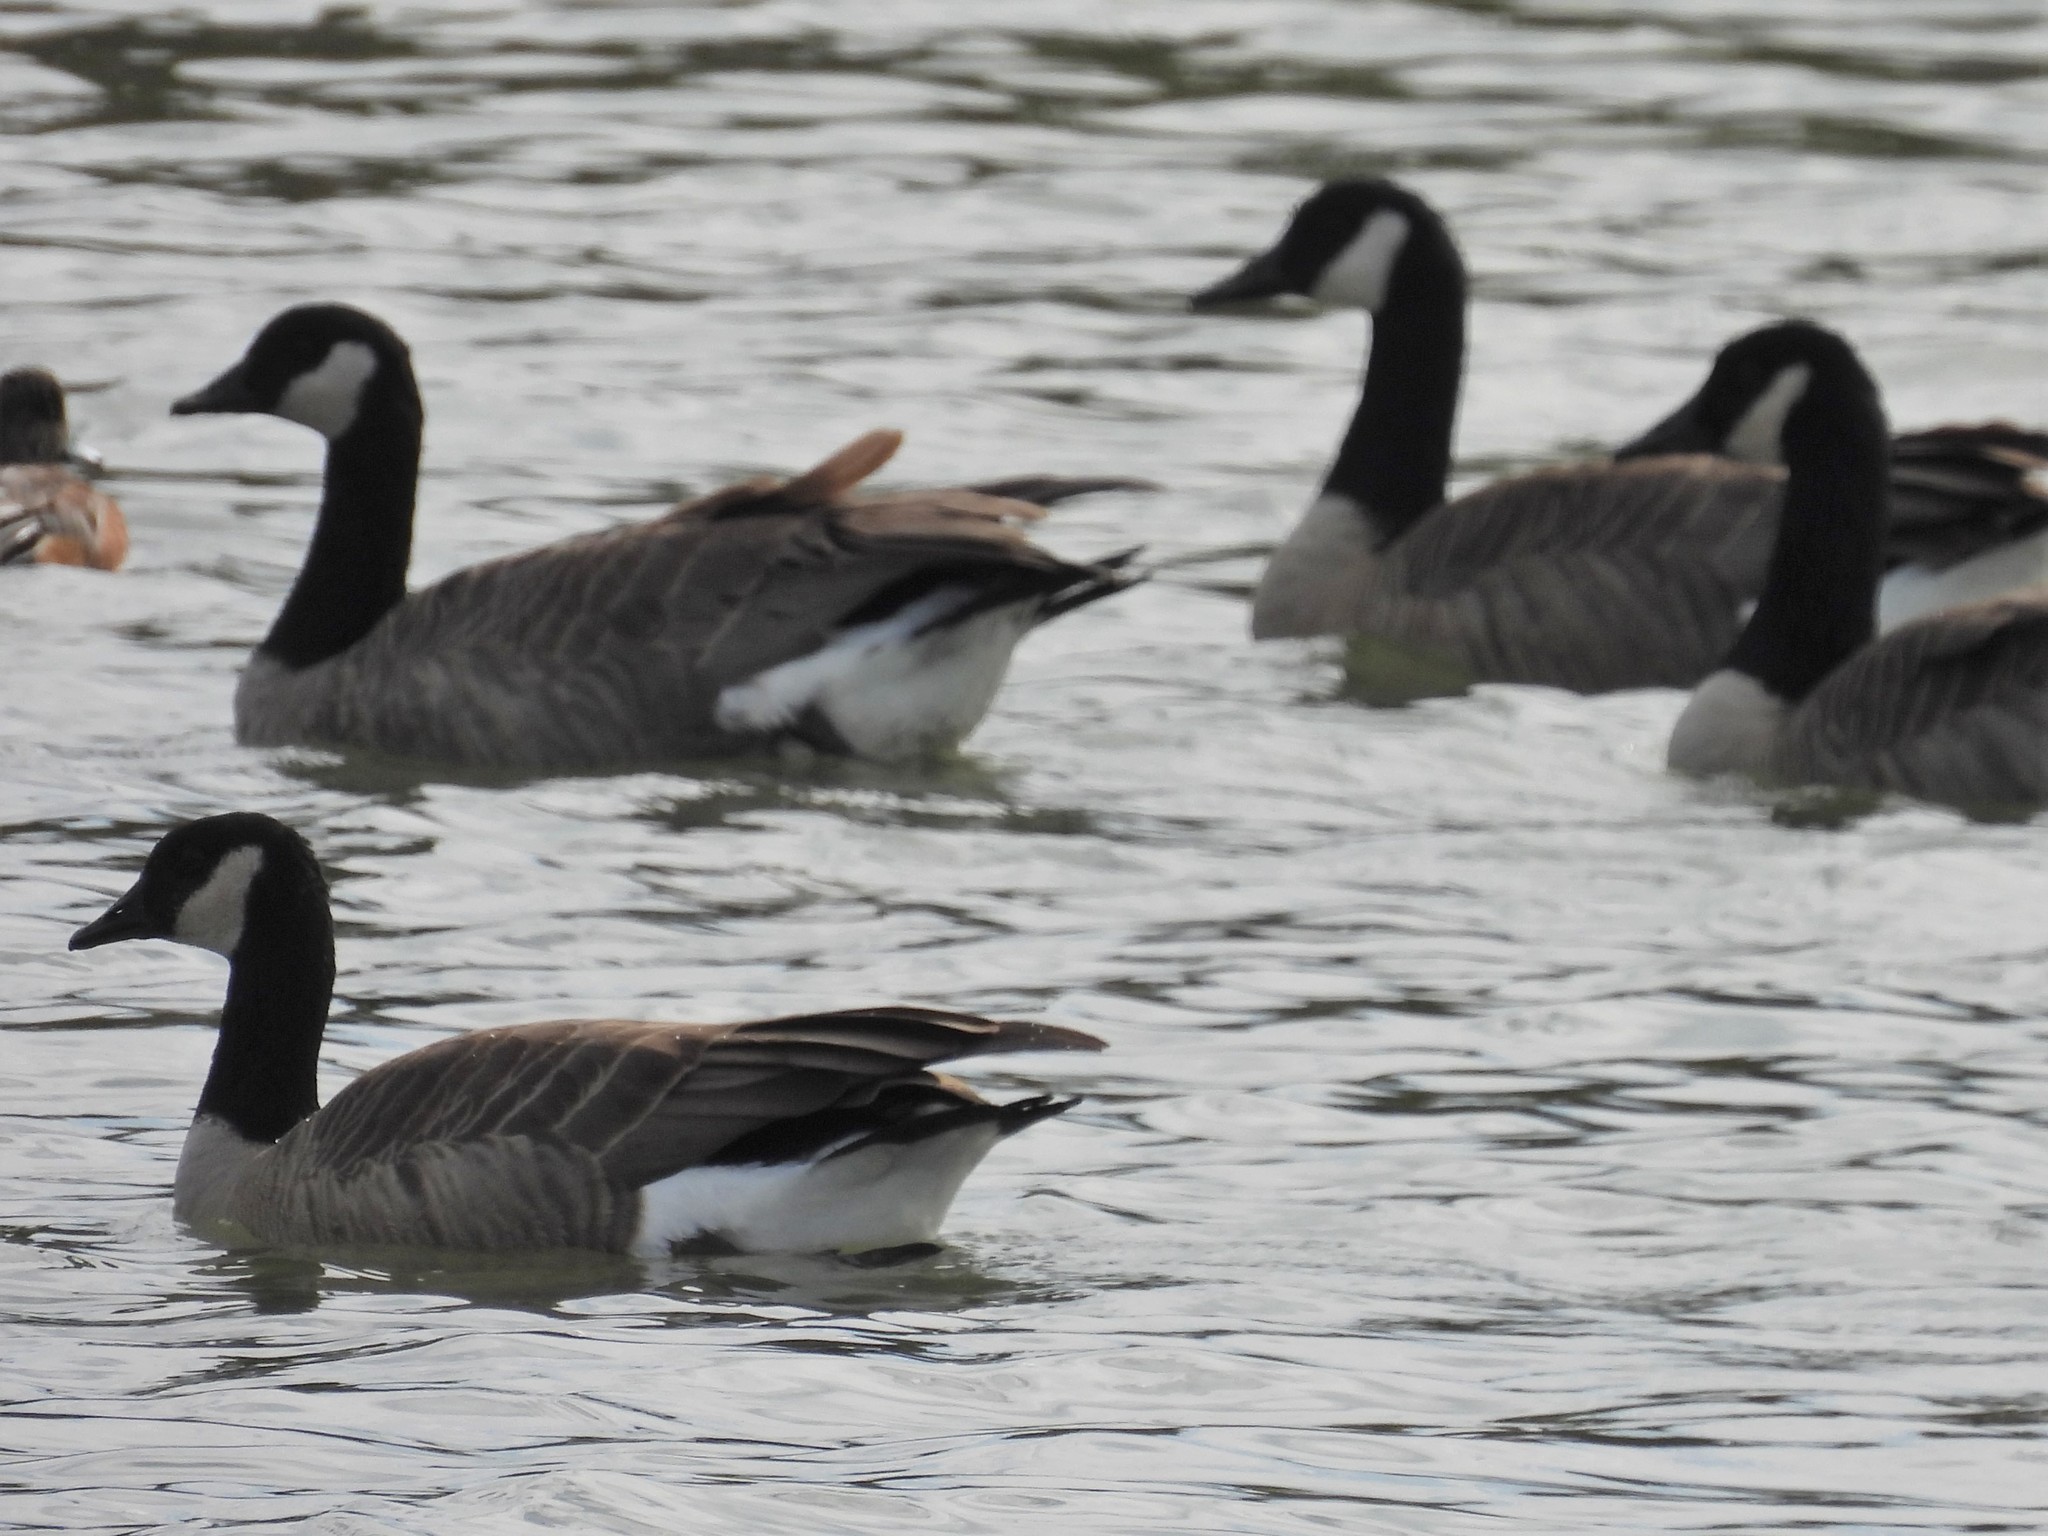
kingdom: Animalia
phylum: Chordata
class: Aves
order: Anseriformes
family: Anatidae
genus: Branta
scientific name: Branta canadensis
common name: Canada goose
